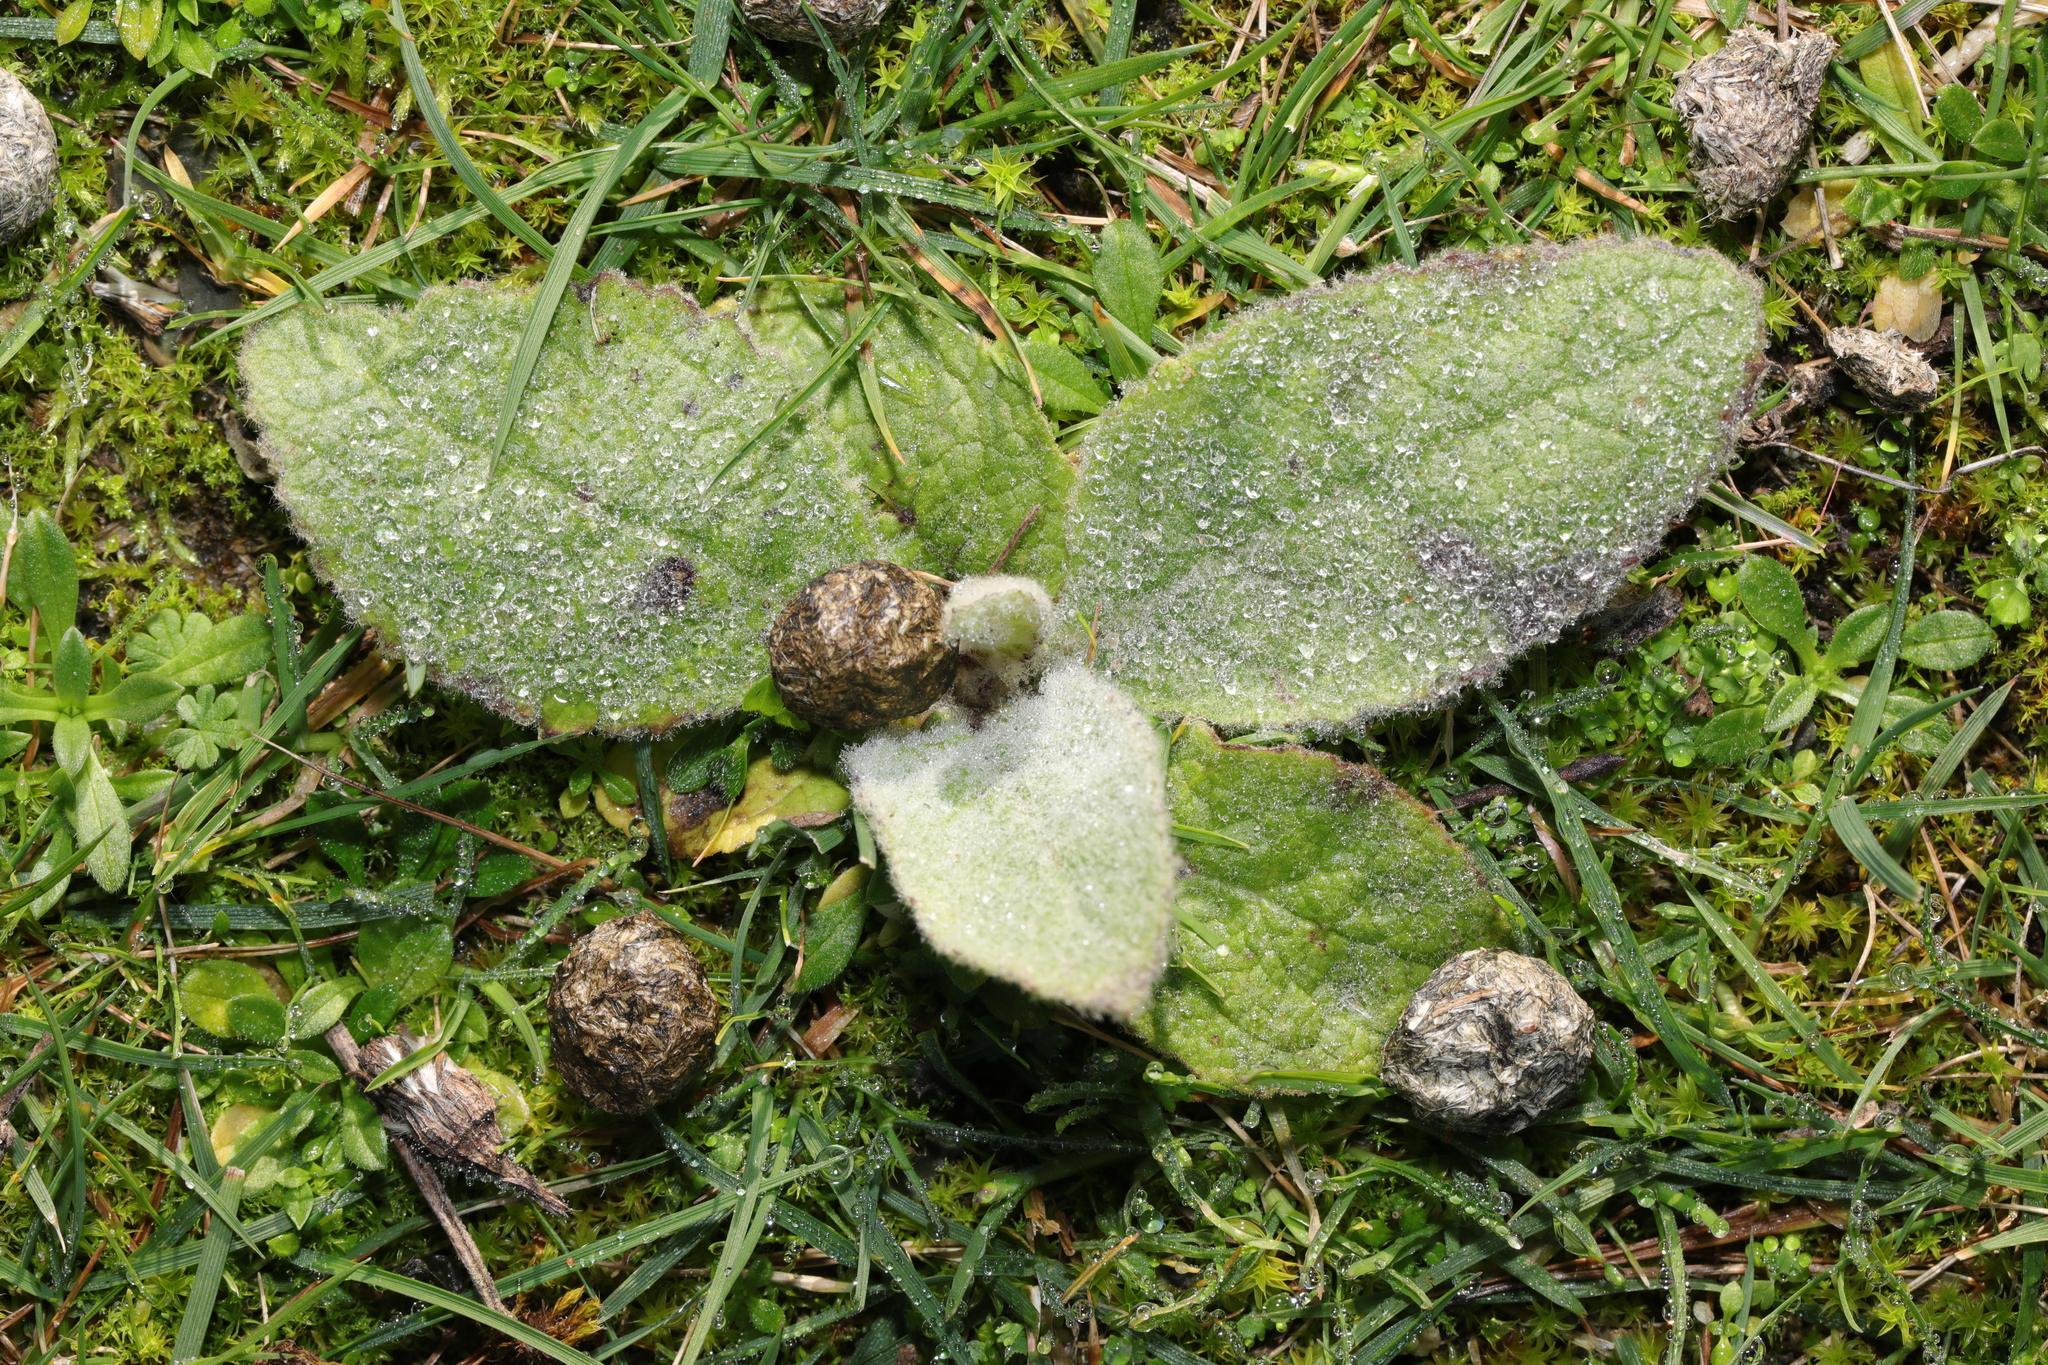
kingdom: Plantae
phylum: Tracheophyta
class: Magnoliopsida
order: Lamiales
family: Scrophulariaceae
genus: Verbascum
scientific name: Verbascum thapsus
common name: Common mullein
